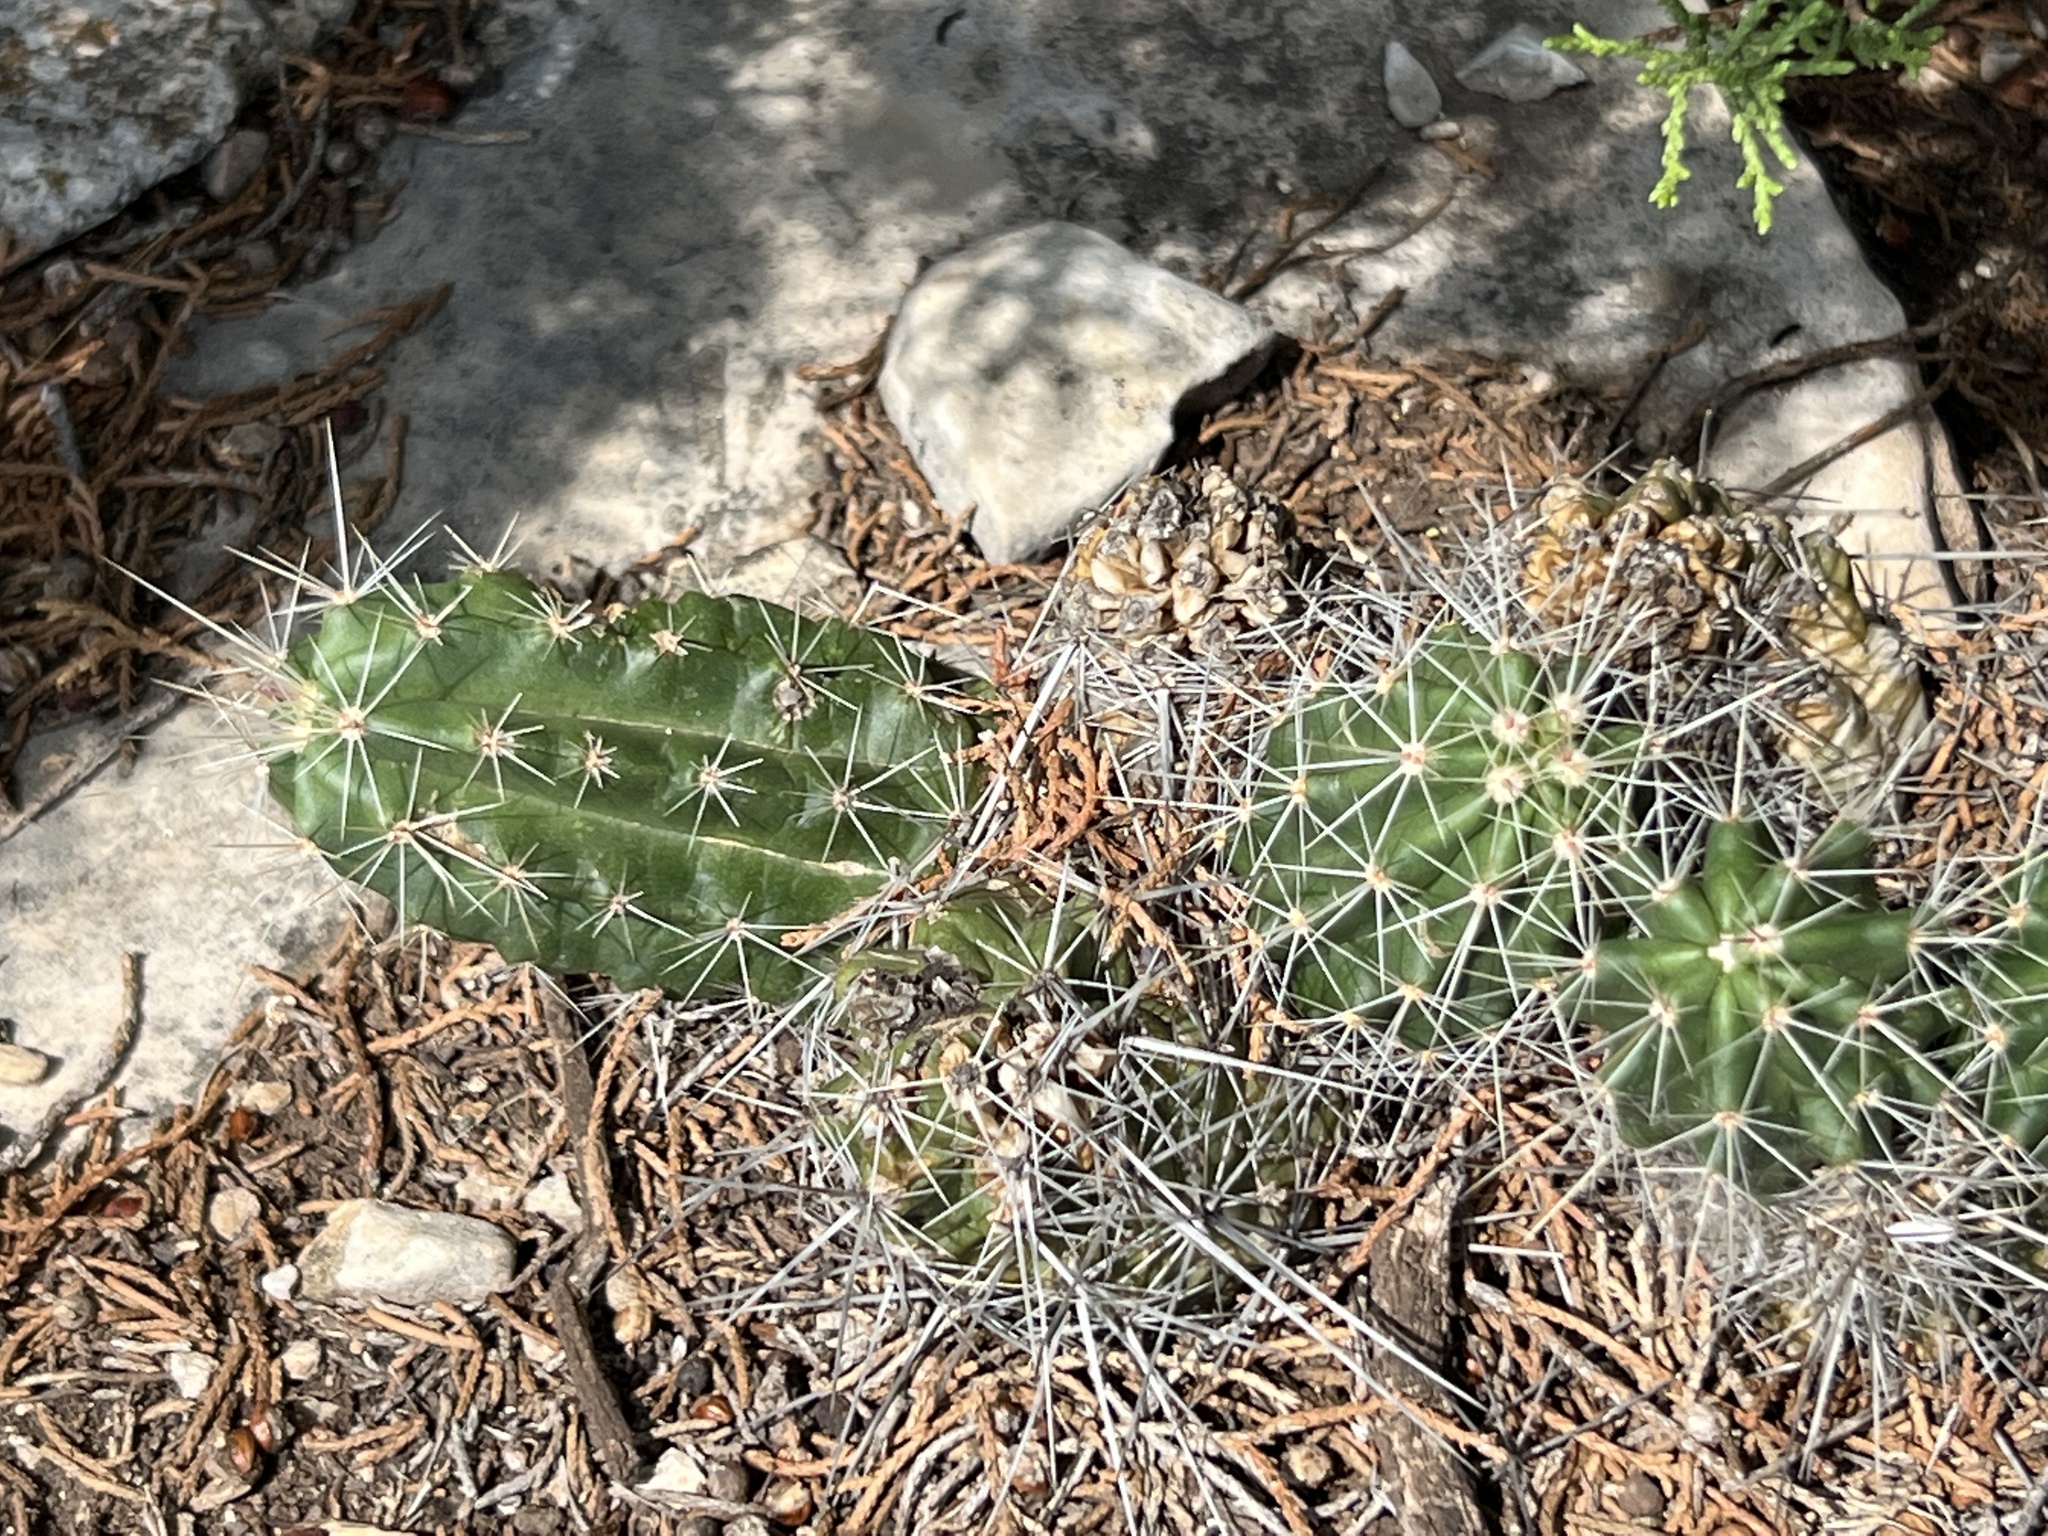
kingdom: Plantae
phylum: Tracheophyta
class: Magnoliopsida
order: Caryophyllales
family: Cactaceae
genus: Echinocereus
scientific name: Echinocereus enneacanthus
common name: Pitaya
